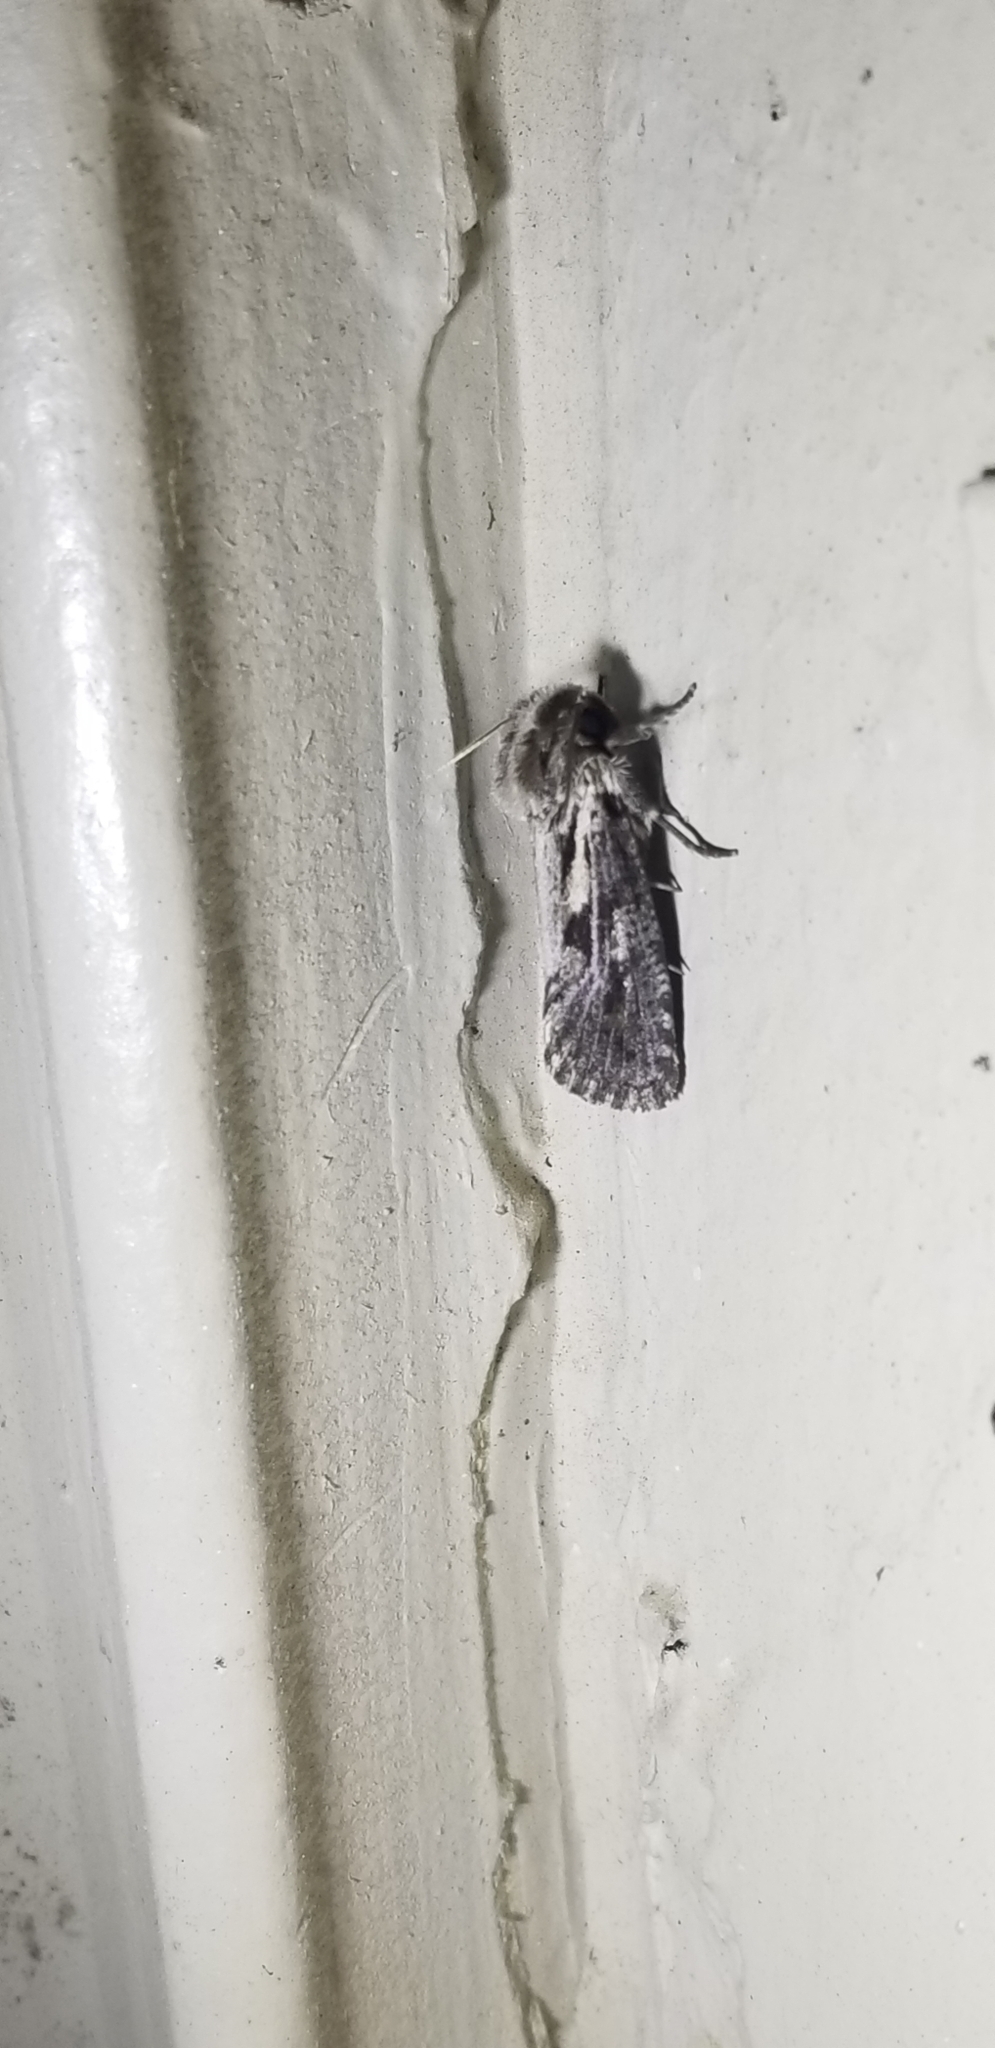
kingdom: Animalia
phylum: Arthropoda
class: Insecta
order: Lepidoptera
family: Tineidae
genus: Acrolophus
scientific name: Acrolophus popeanella
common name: Clemens' grass tubeworm moth
